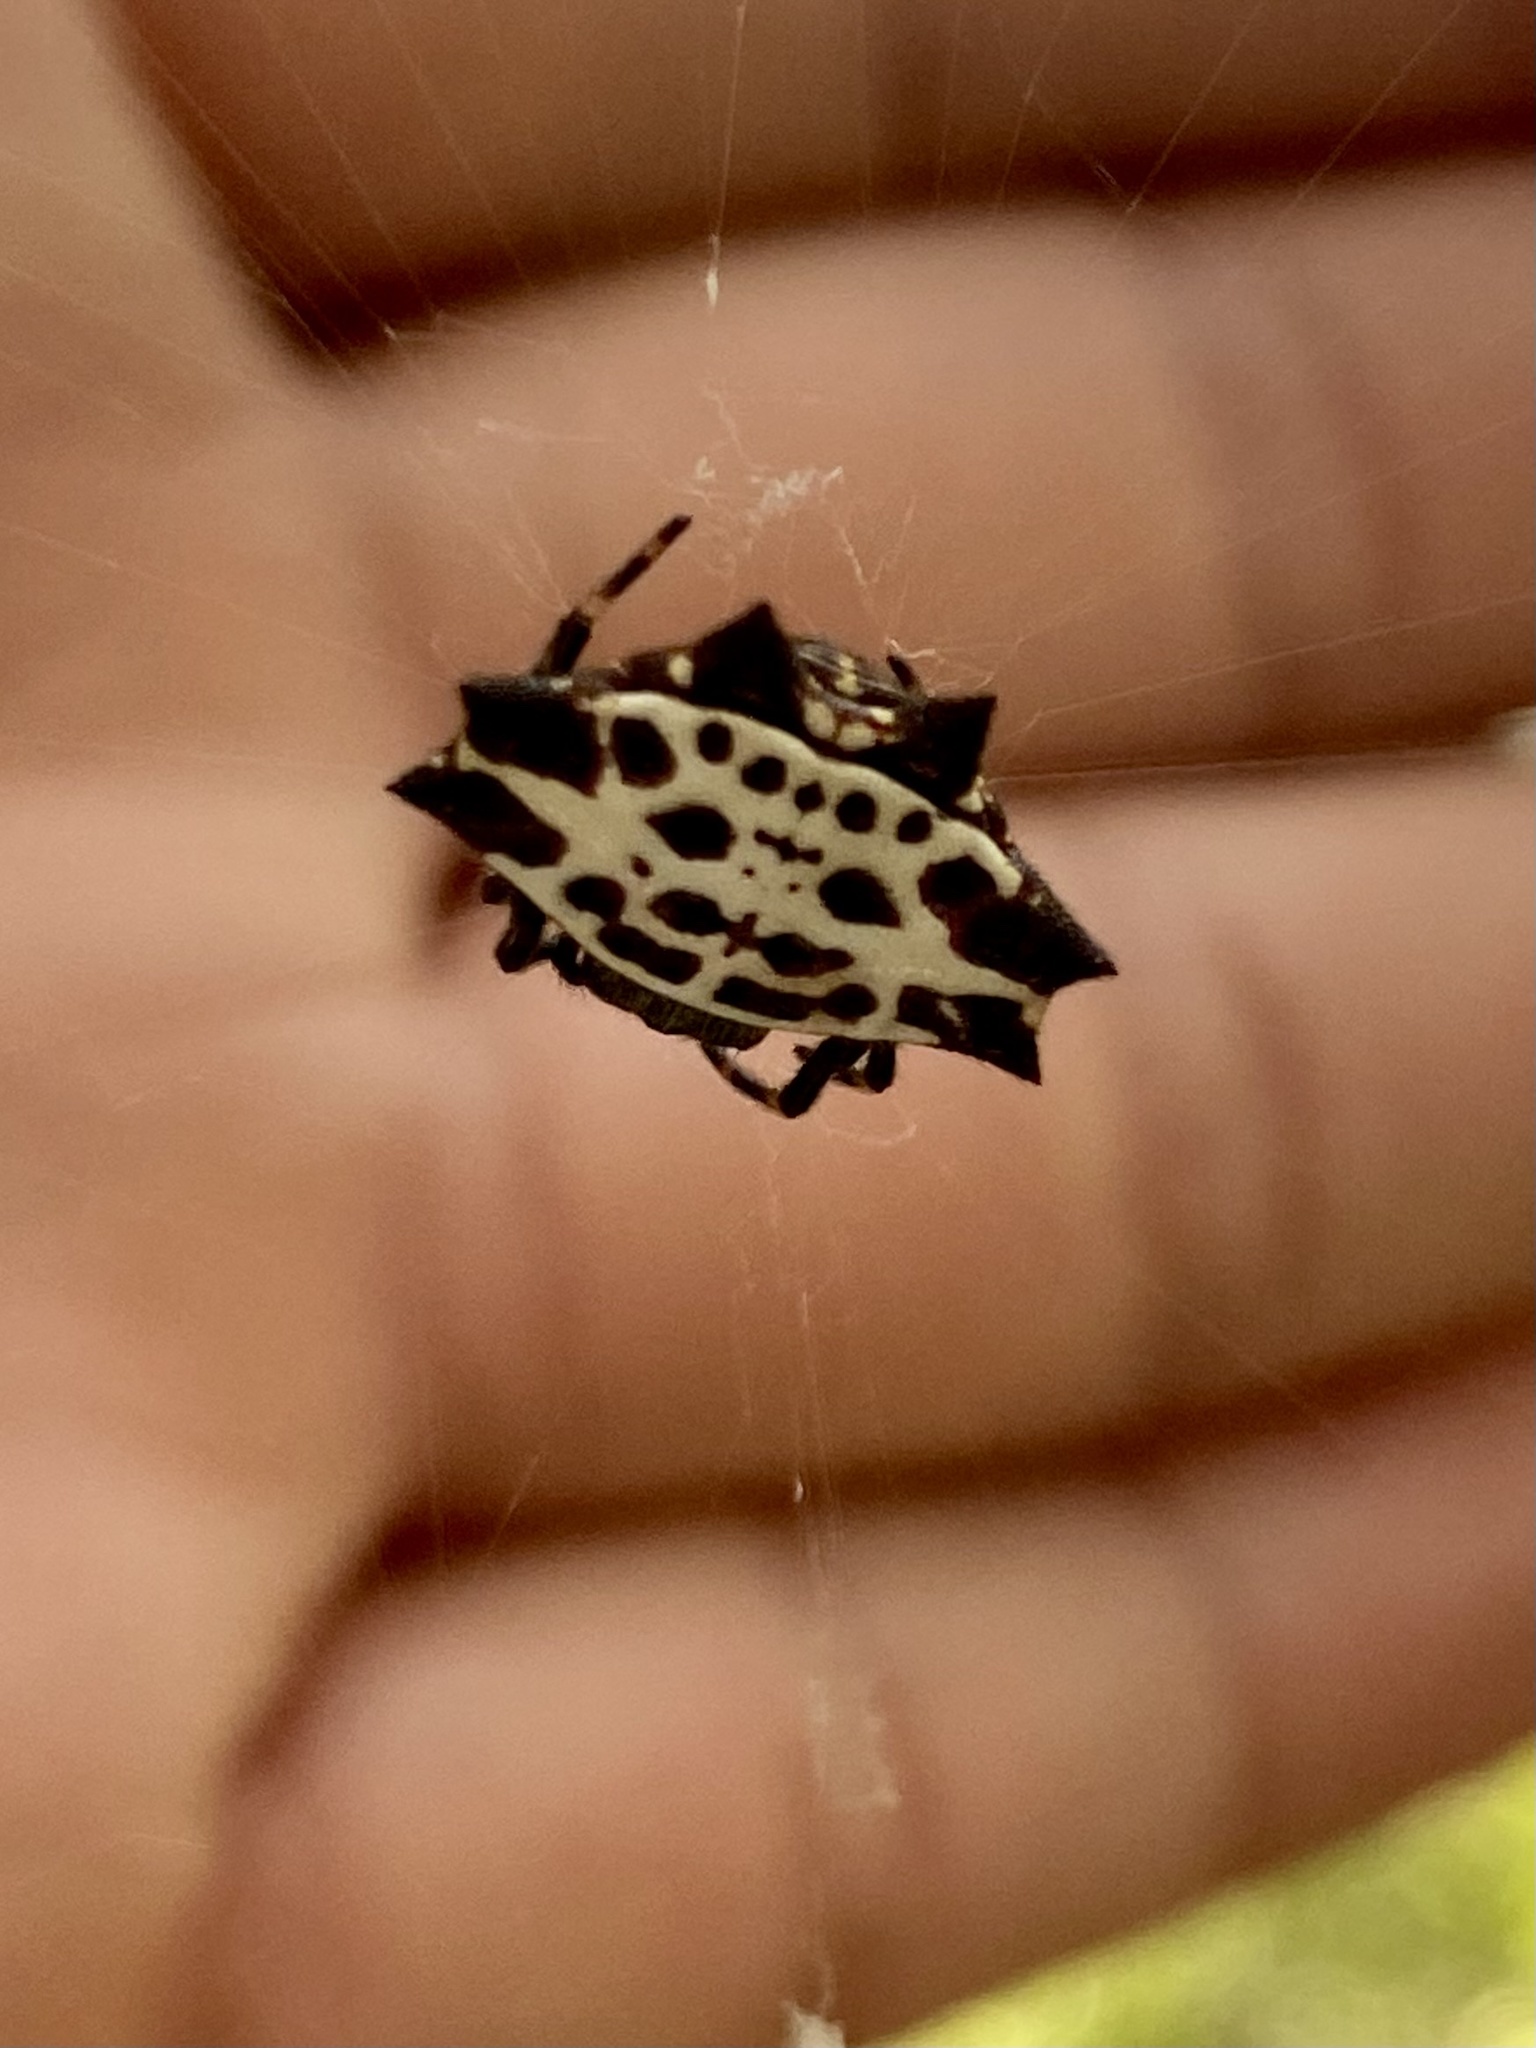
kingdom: Animalia
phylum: Arthropoda
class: Arachnida
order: Araneae
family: Araneidae
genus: Gasteracantha
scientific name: Gasteracantha cancriformis
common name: Orb weavers
